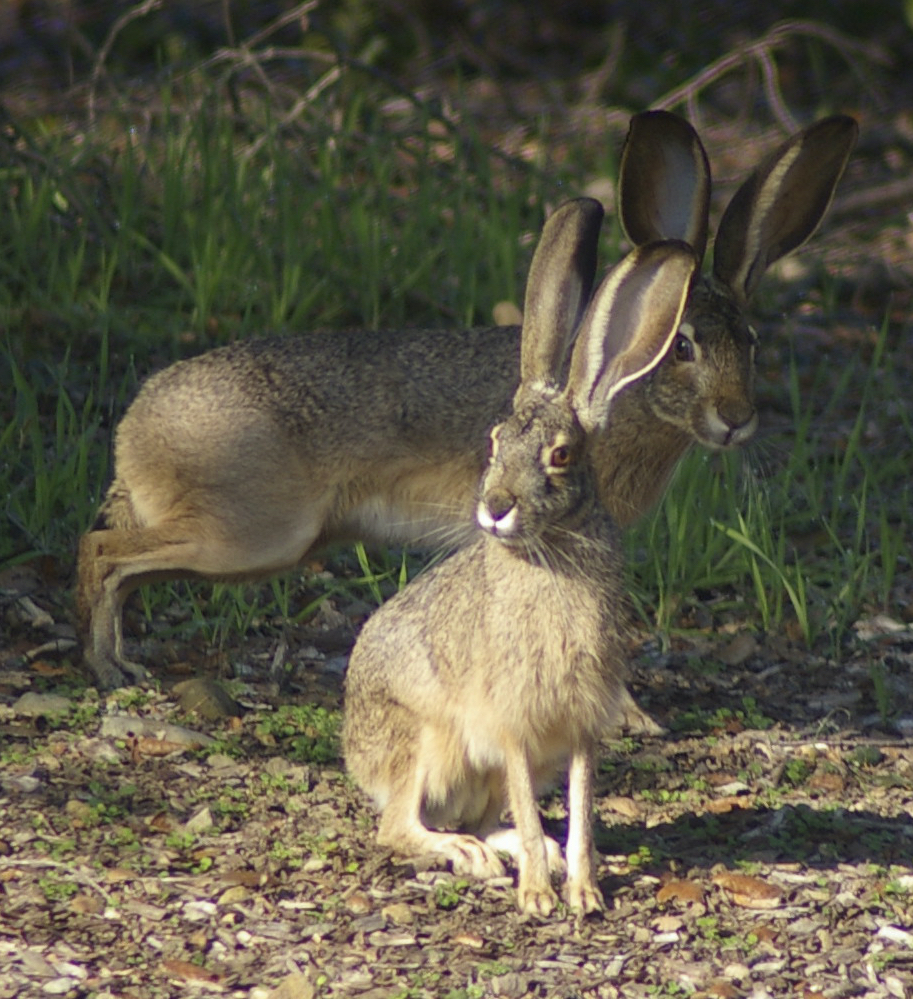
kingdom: Animalia
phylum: Chordata
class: Mammalia
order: Lagomorpha
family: Leporidae
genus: Lepus
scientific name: Lepus californicus
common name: Black-tailed jackrabbit
